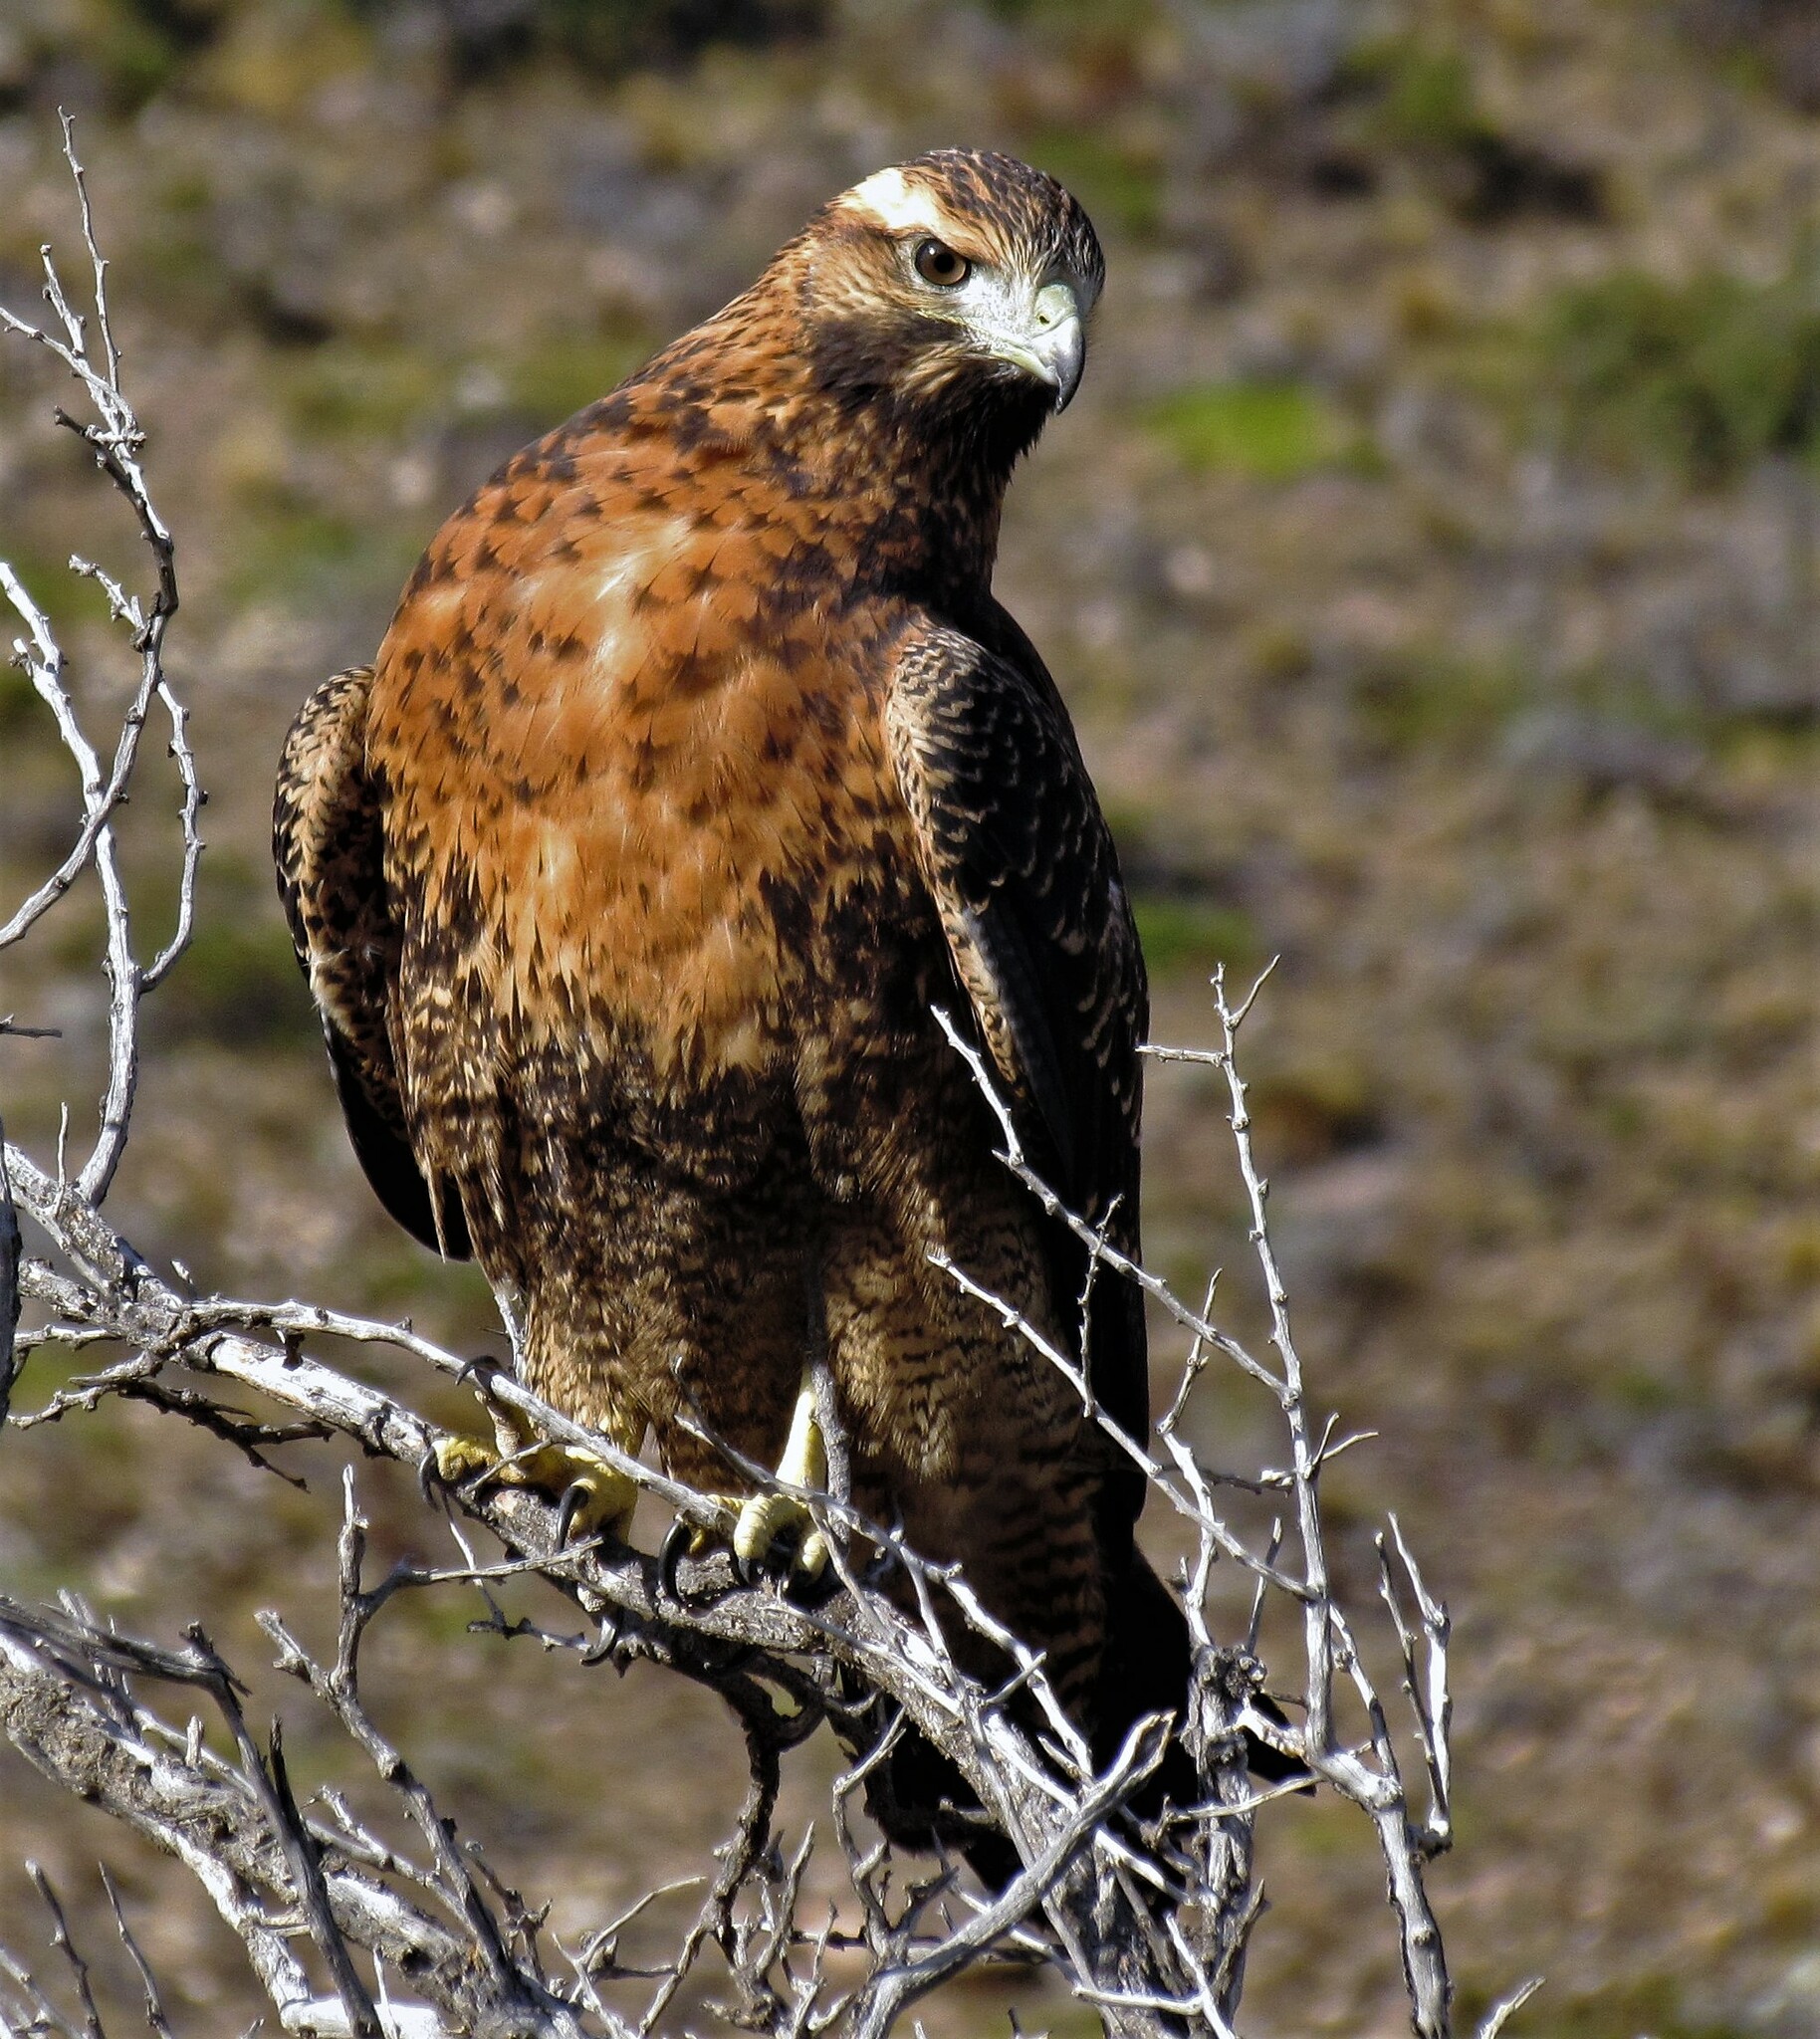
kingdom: Animalia
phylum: Chordata
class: Aves
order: Accipitriformes
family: Accipitridae
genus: Geranoaetus
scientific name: Geranoaetus melanoleucus
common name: Black-chested buzzard-eagle
